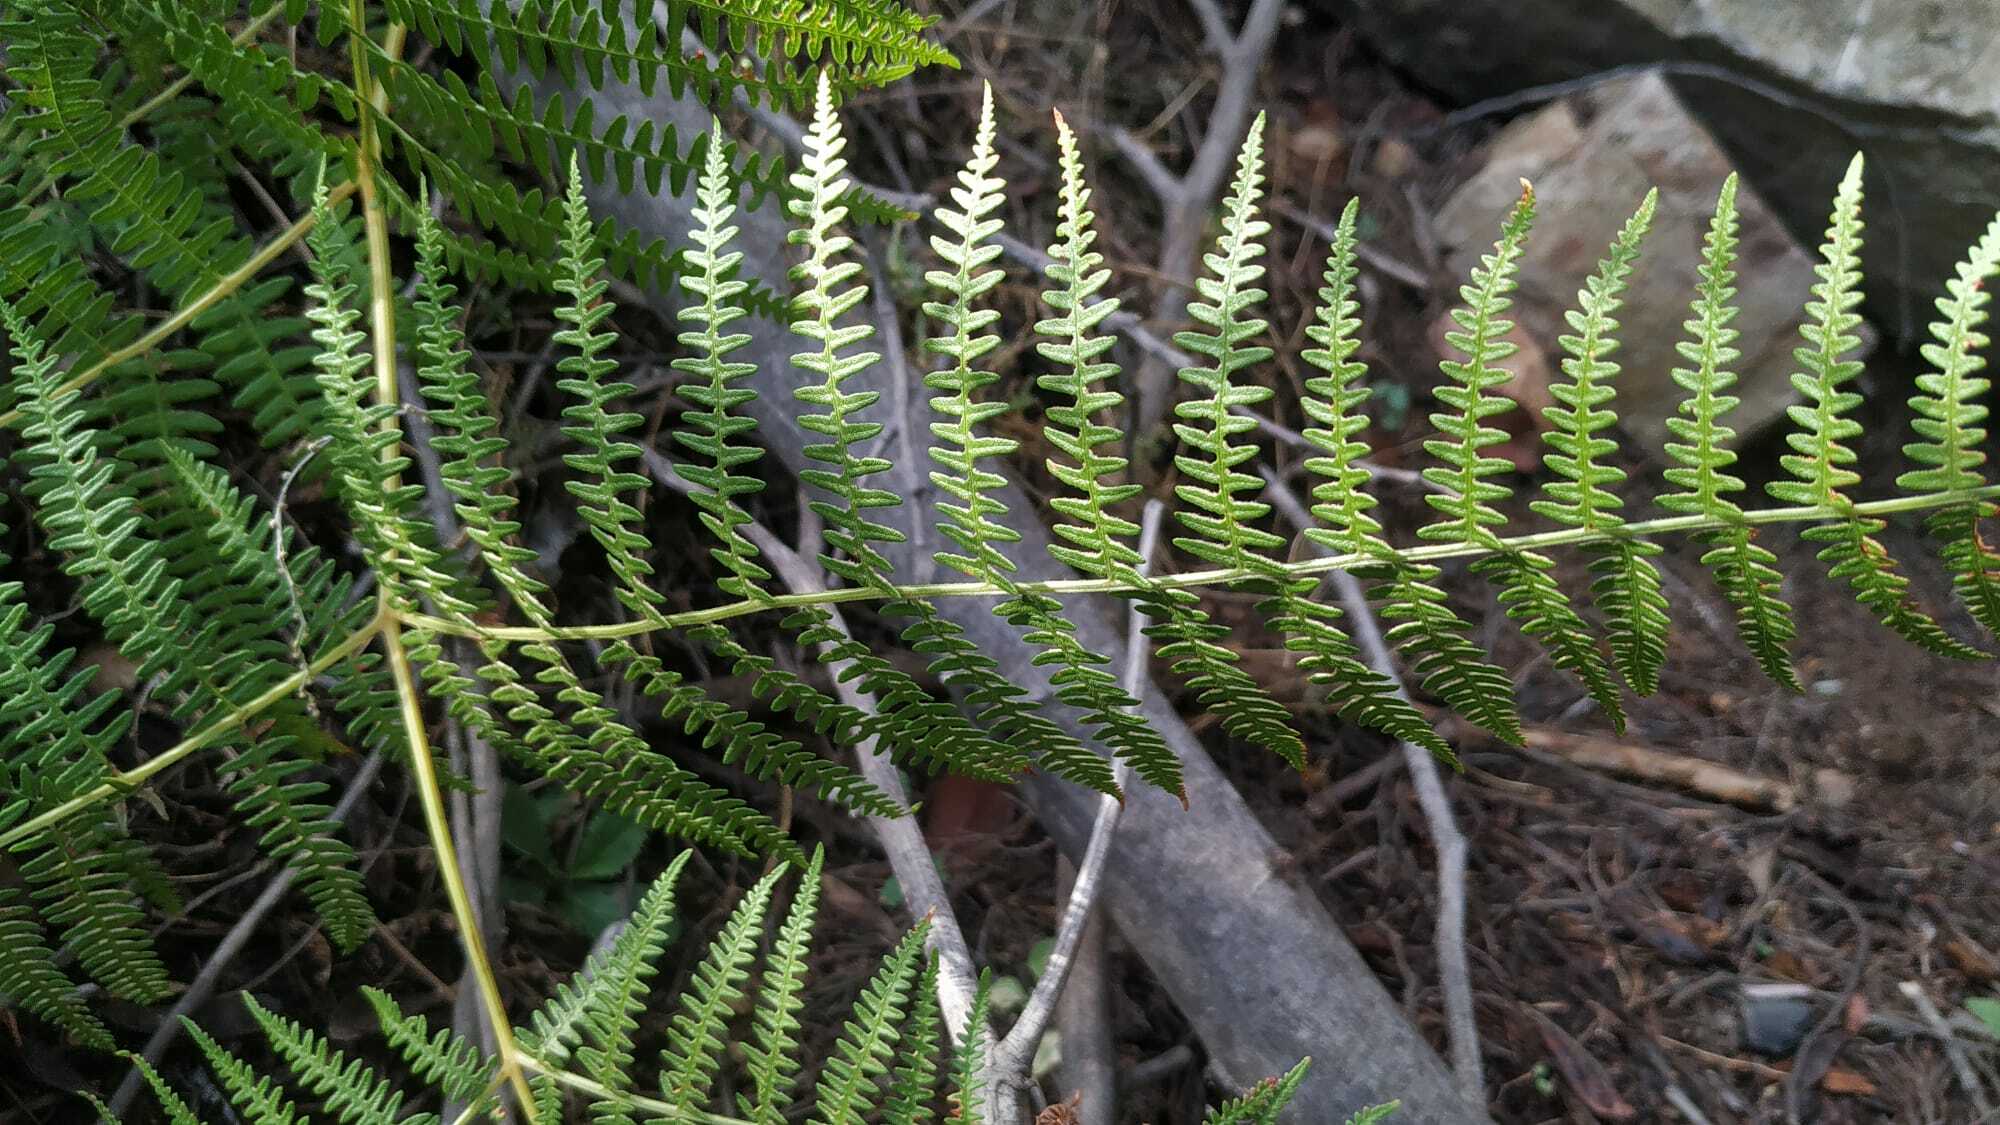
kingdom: Plantae
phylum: Tracheophyta
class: Polypodiopsida
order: Polypodiales
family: Dennstaedtiaceae
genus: Pteridium
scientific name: Pteridium aquilinum
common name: Bracken
